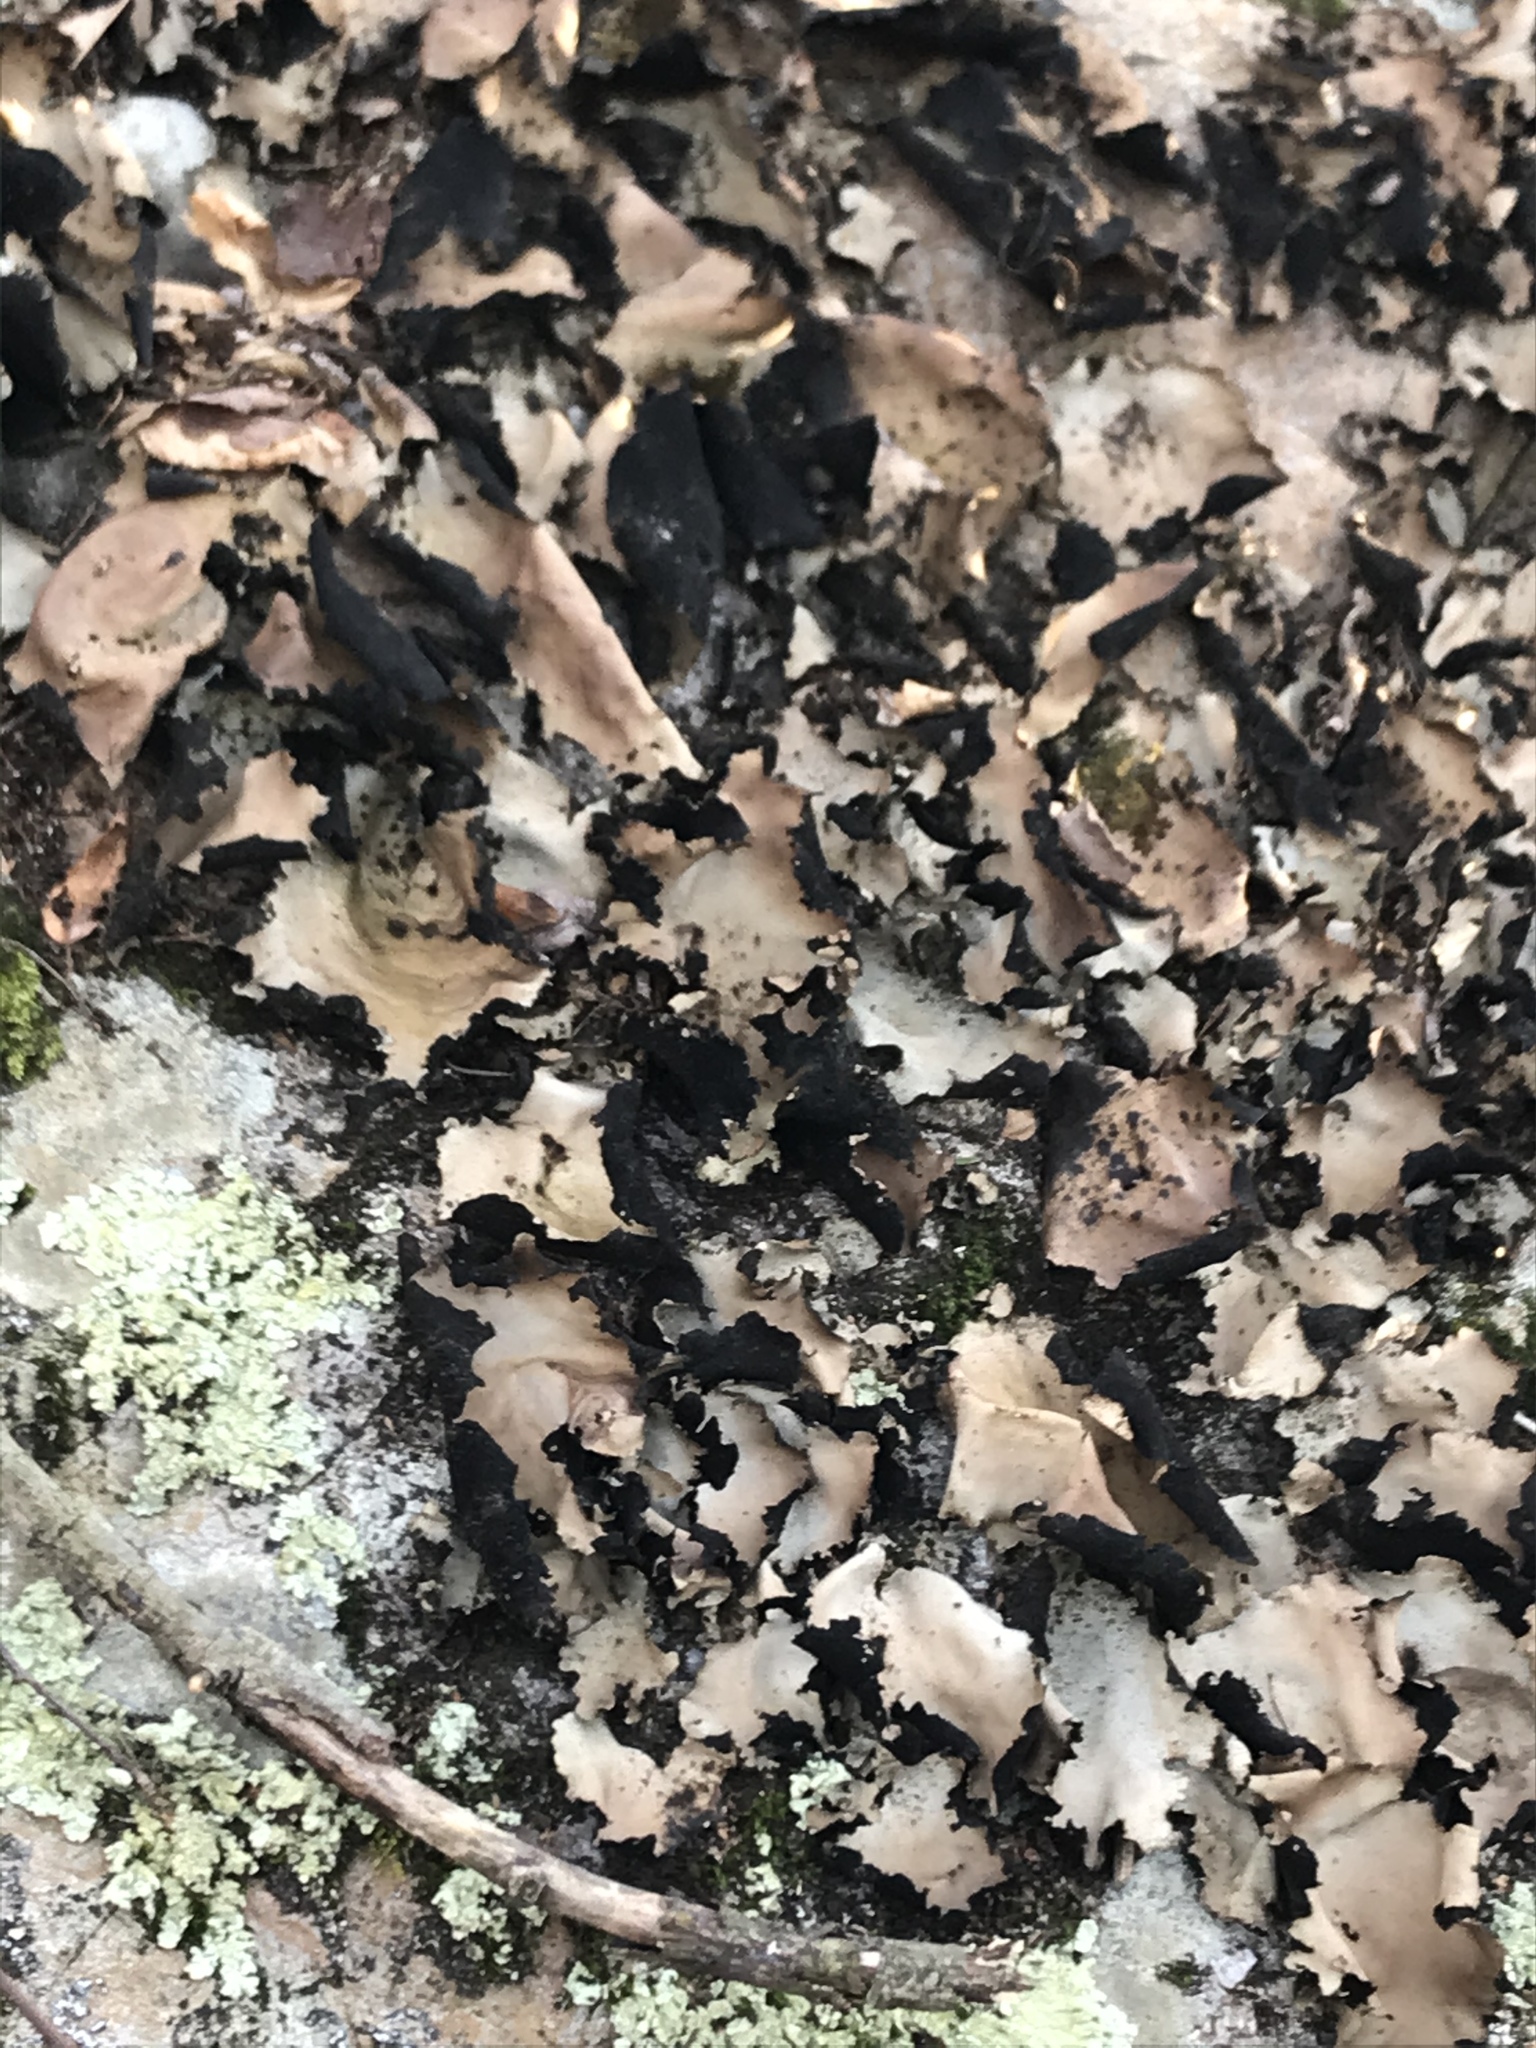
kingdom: Fungi
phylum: Ascomycota
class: Lecanoromycetes
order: Umbilicariales
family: Umbilicariaceae
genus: Umbilicaria
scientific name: Umbilicaria mammulata
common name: Smooth rock tripe
